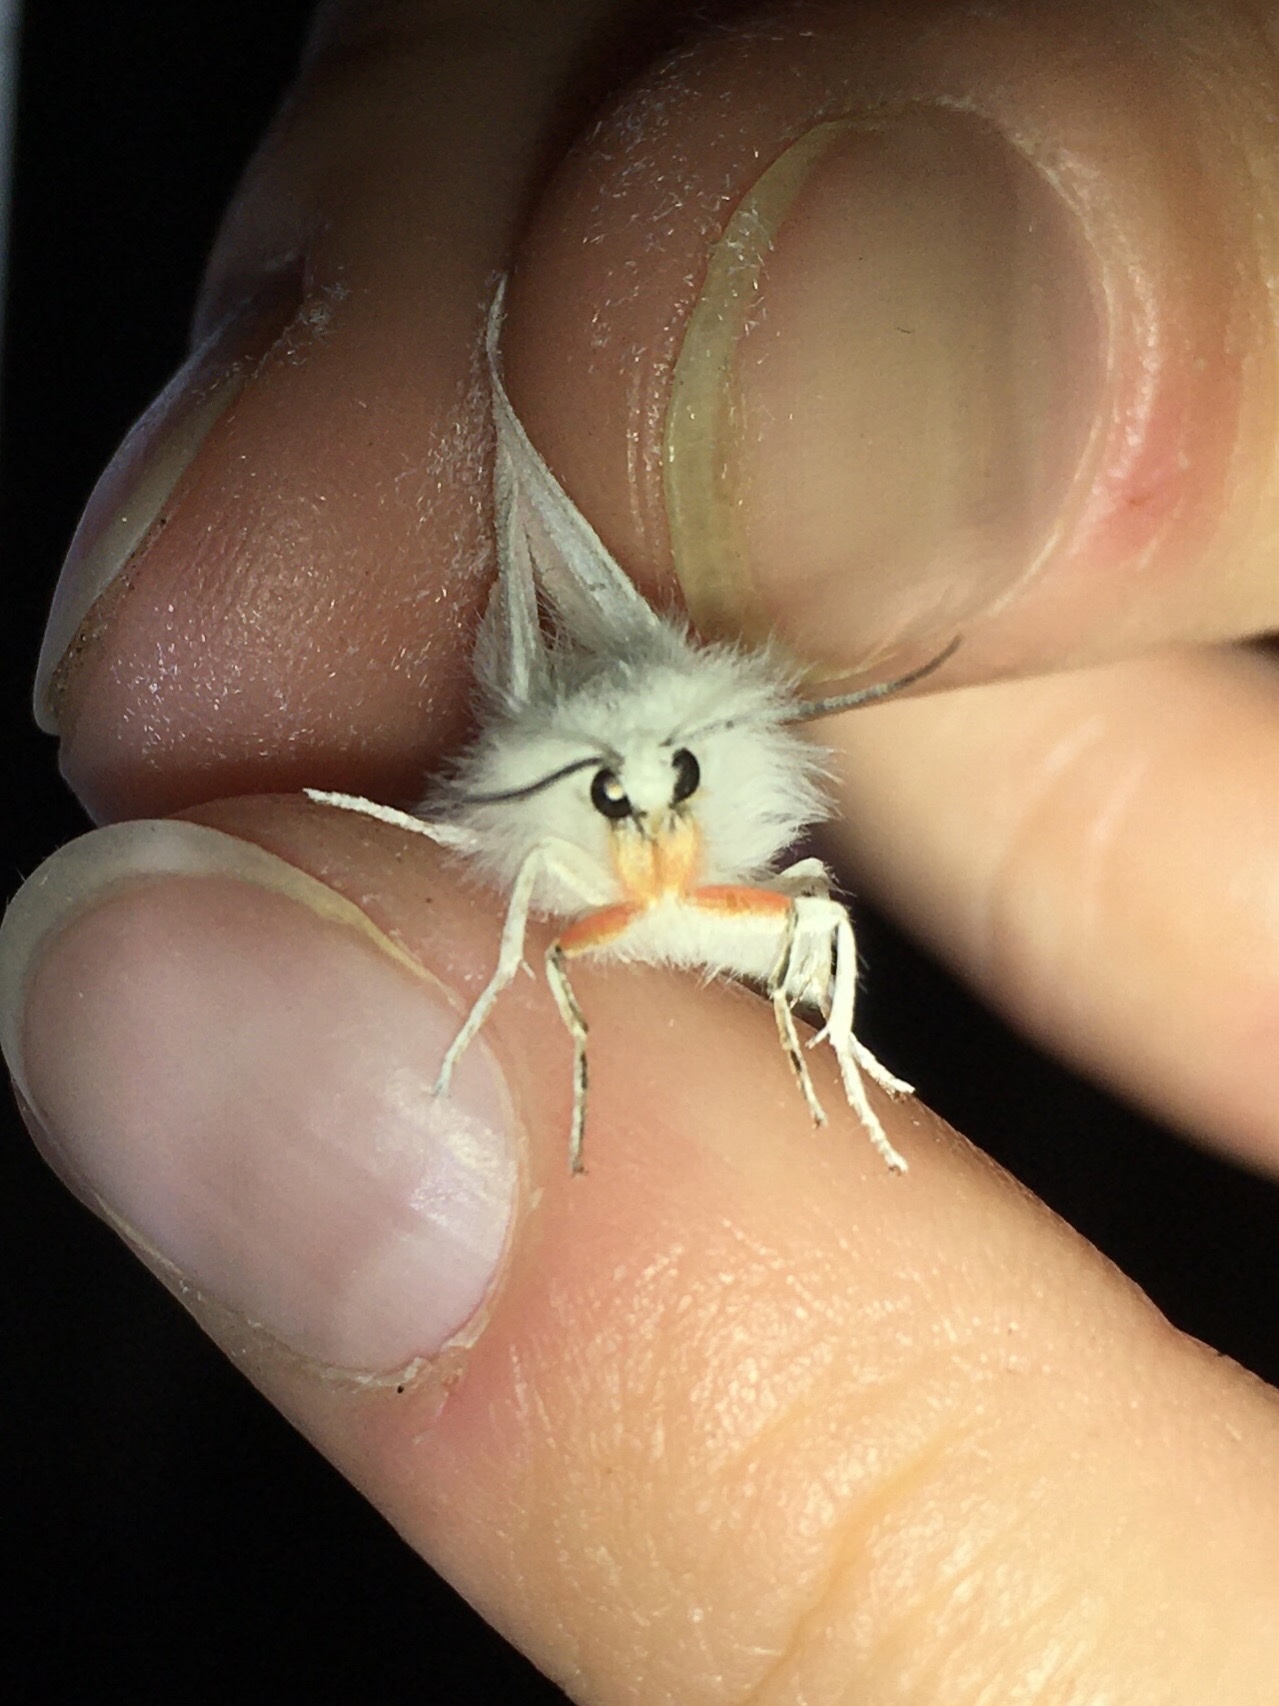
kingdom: Animalia
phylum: Arthropoda
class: Insecta
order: Lepidoptera
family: Erebidae
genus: Spilosoma
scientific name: Spilosoma latipennis
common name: Pink-legged tiger moth
